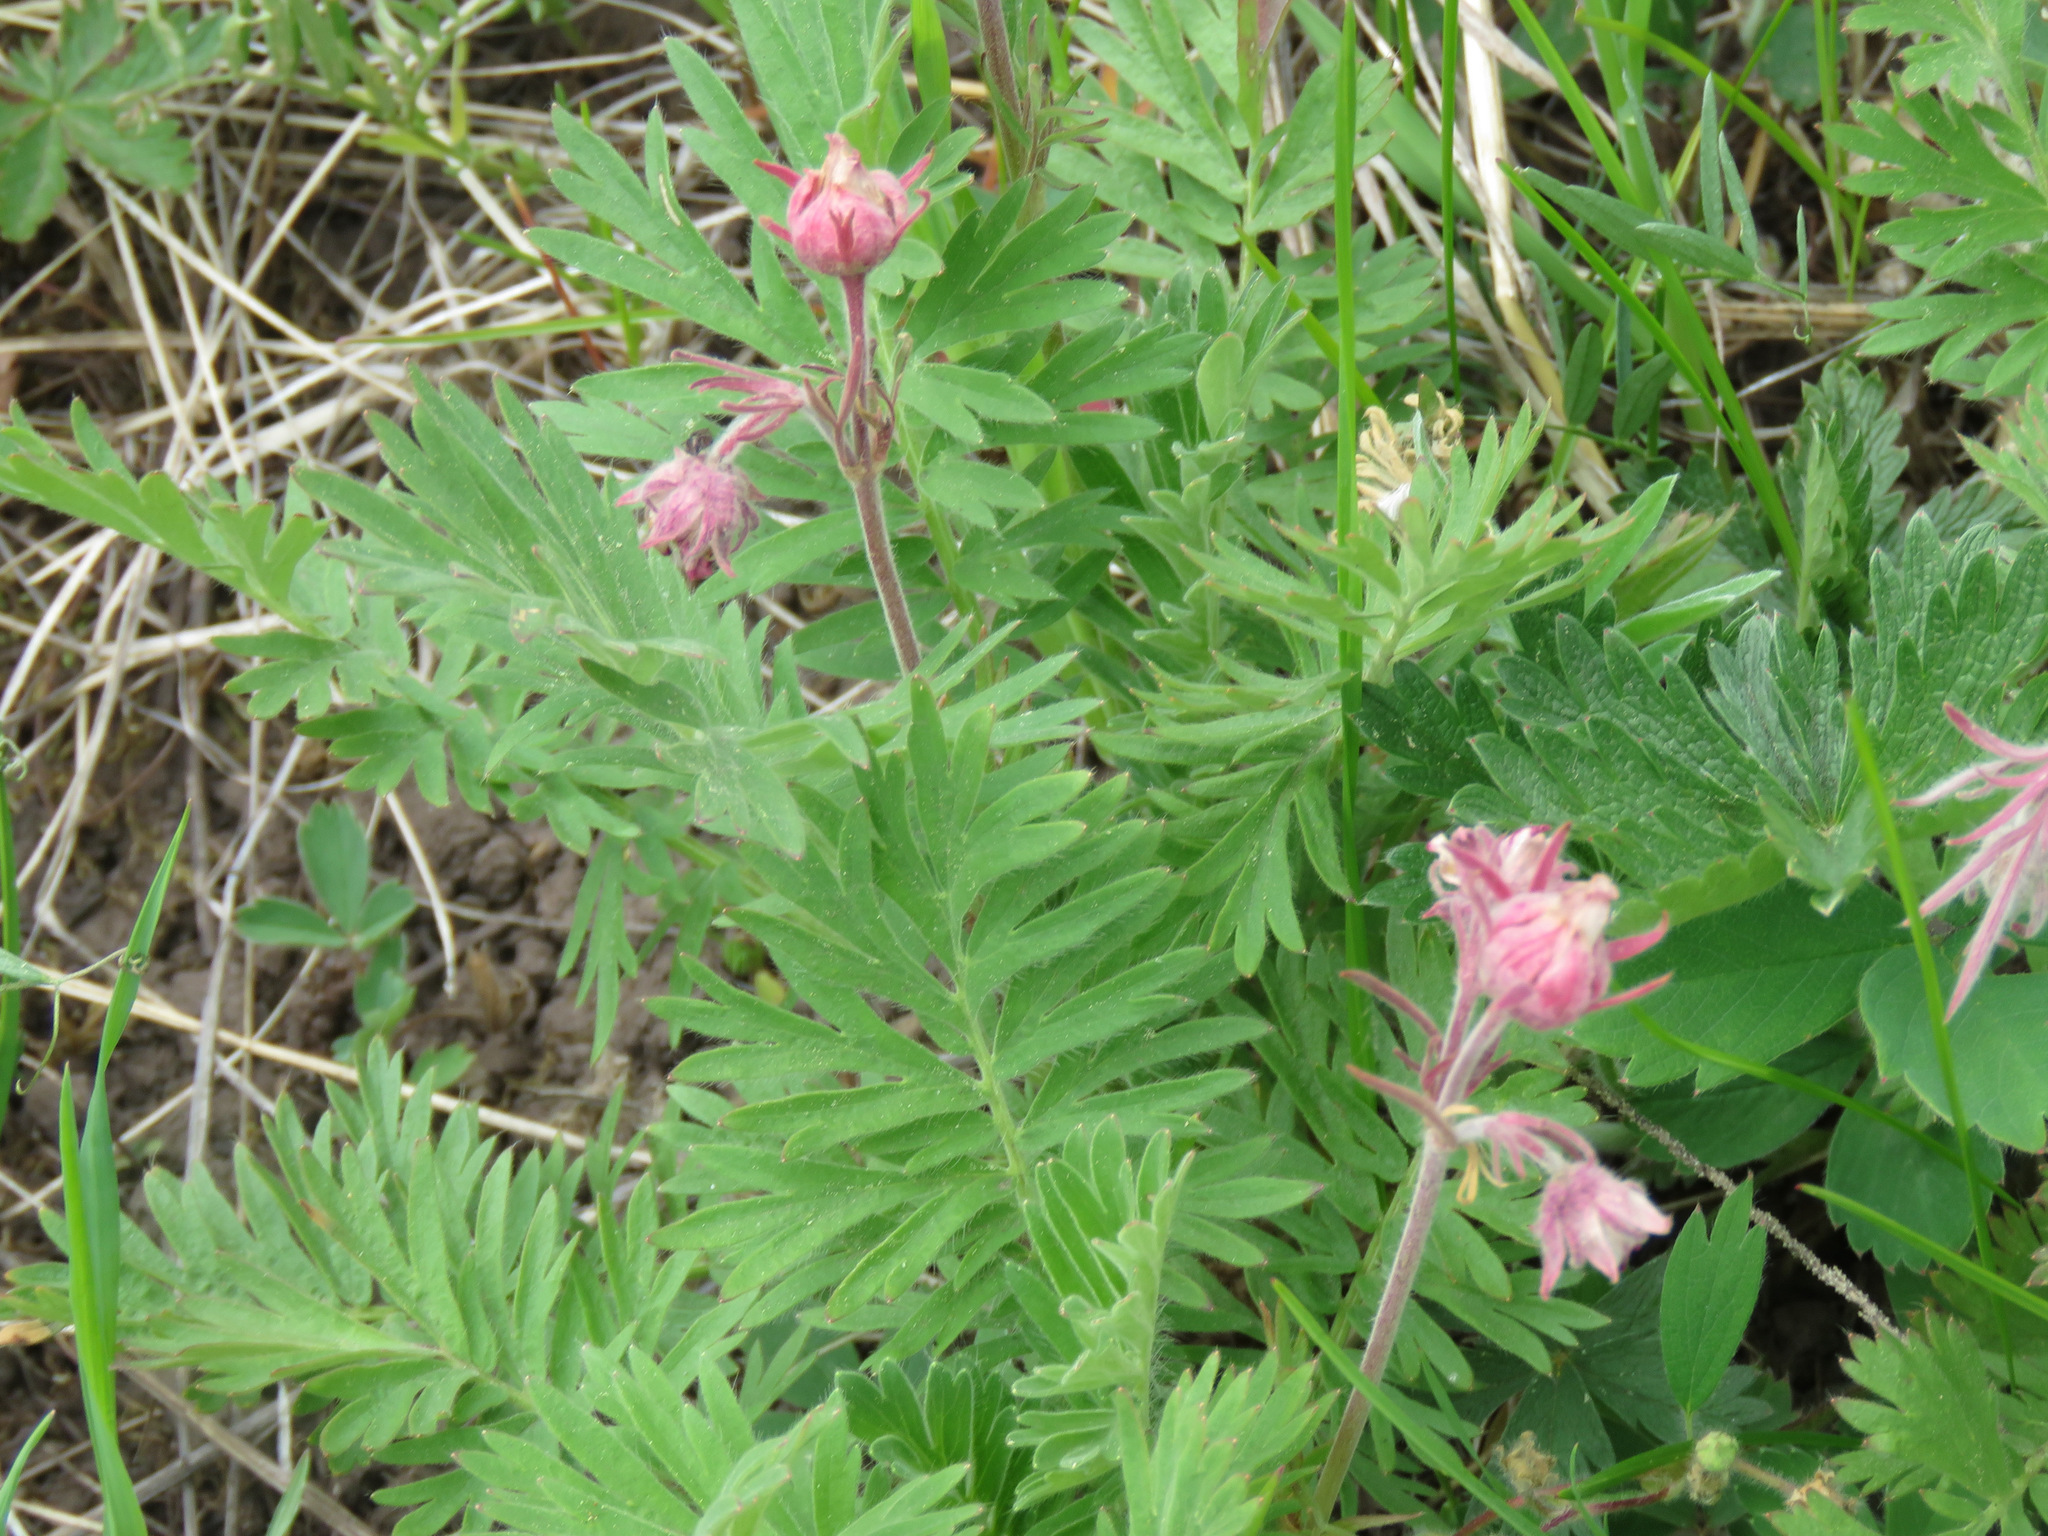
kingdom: Plantae
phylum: Tracheophyta
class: Magnoliopsida
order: Rosales
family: Rosaceae
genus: Geum
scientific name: Geum triflorum
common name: Old man's whiskers
